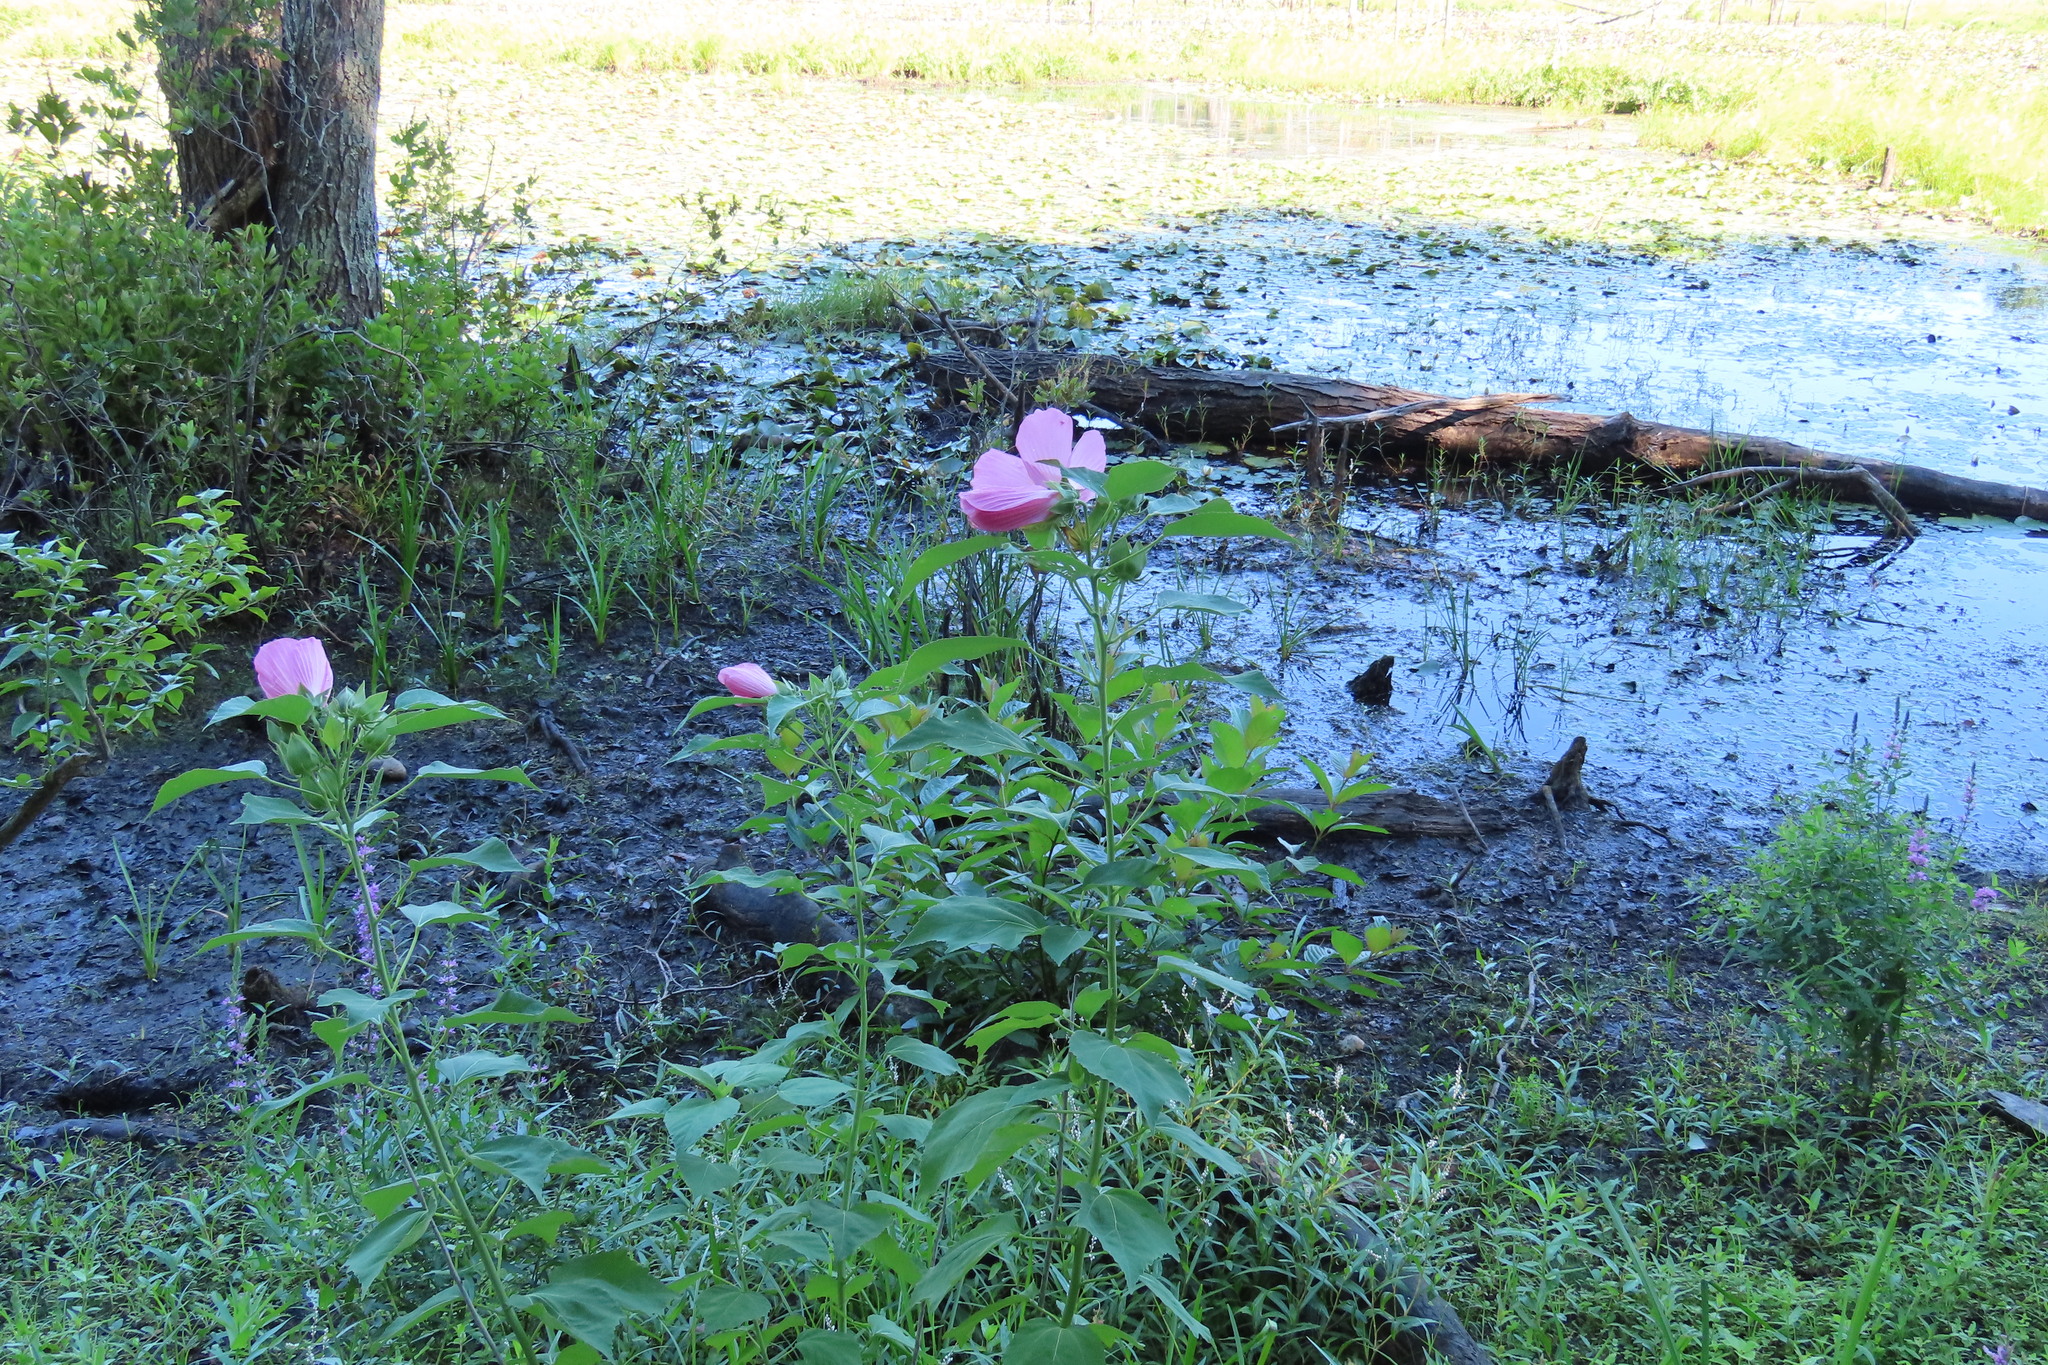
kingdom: Plantae
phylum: Tracheophyta
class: Magnoliopsida
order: Malvales
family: Malvaceae
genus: Hibiscus
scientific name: Hibiscus moscheutos
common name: Common rose-mallow
